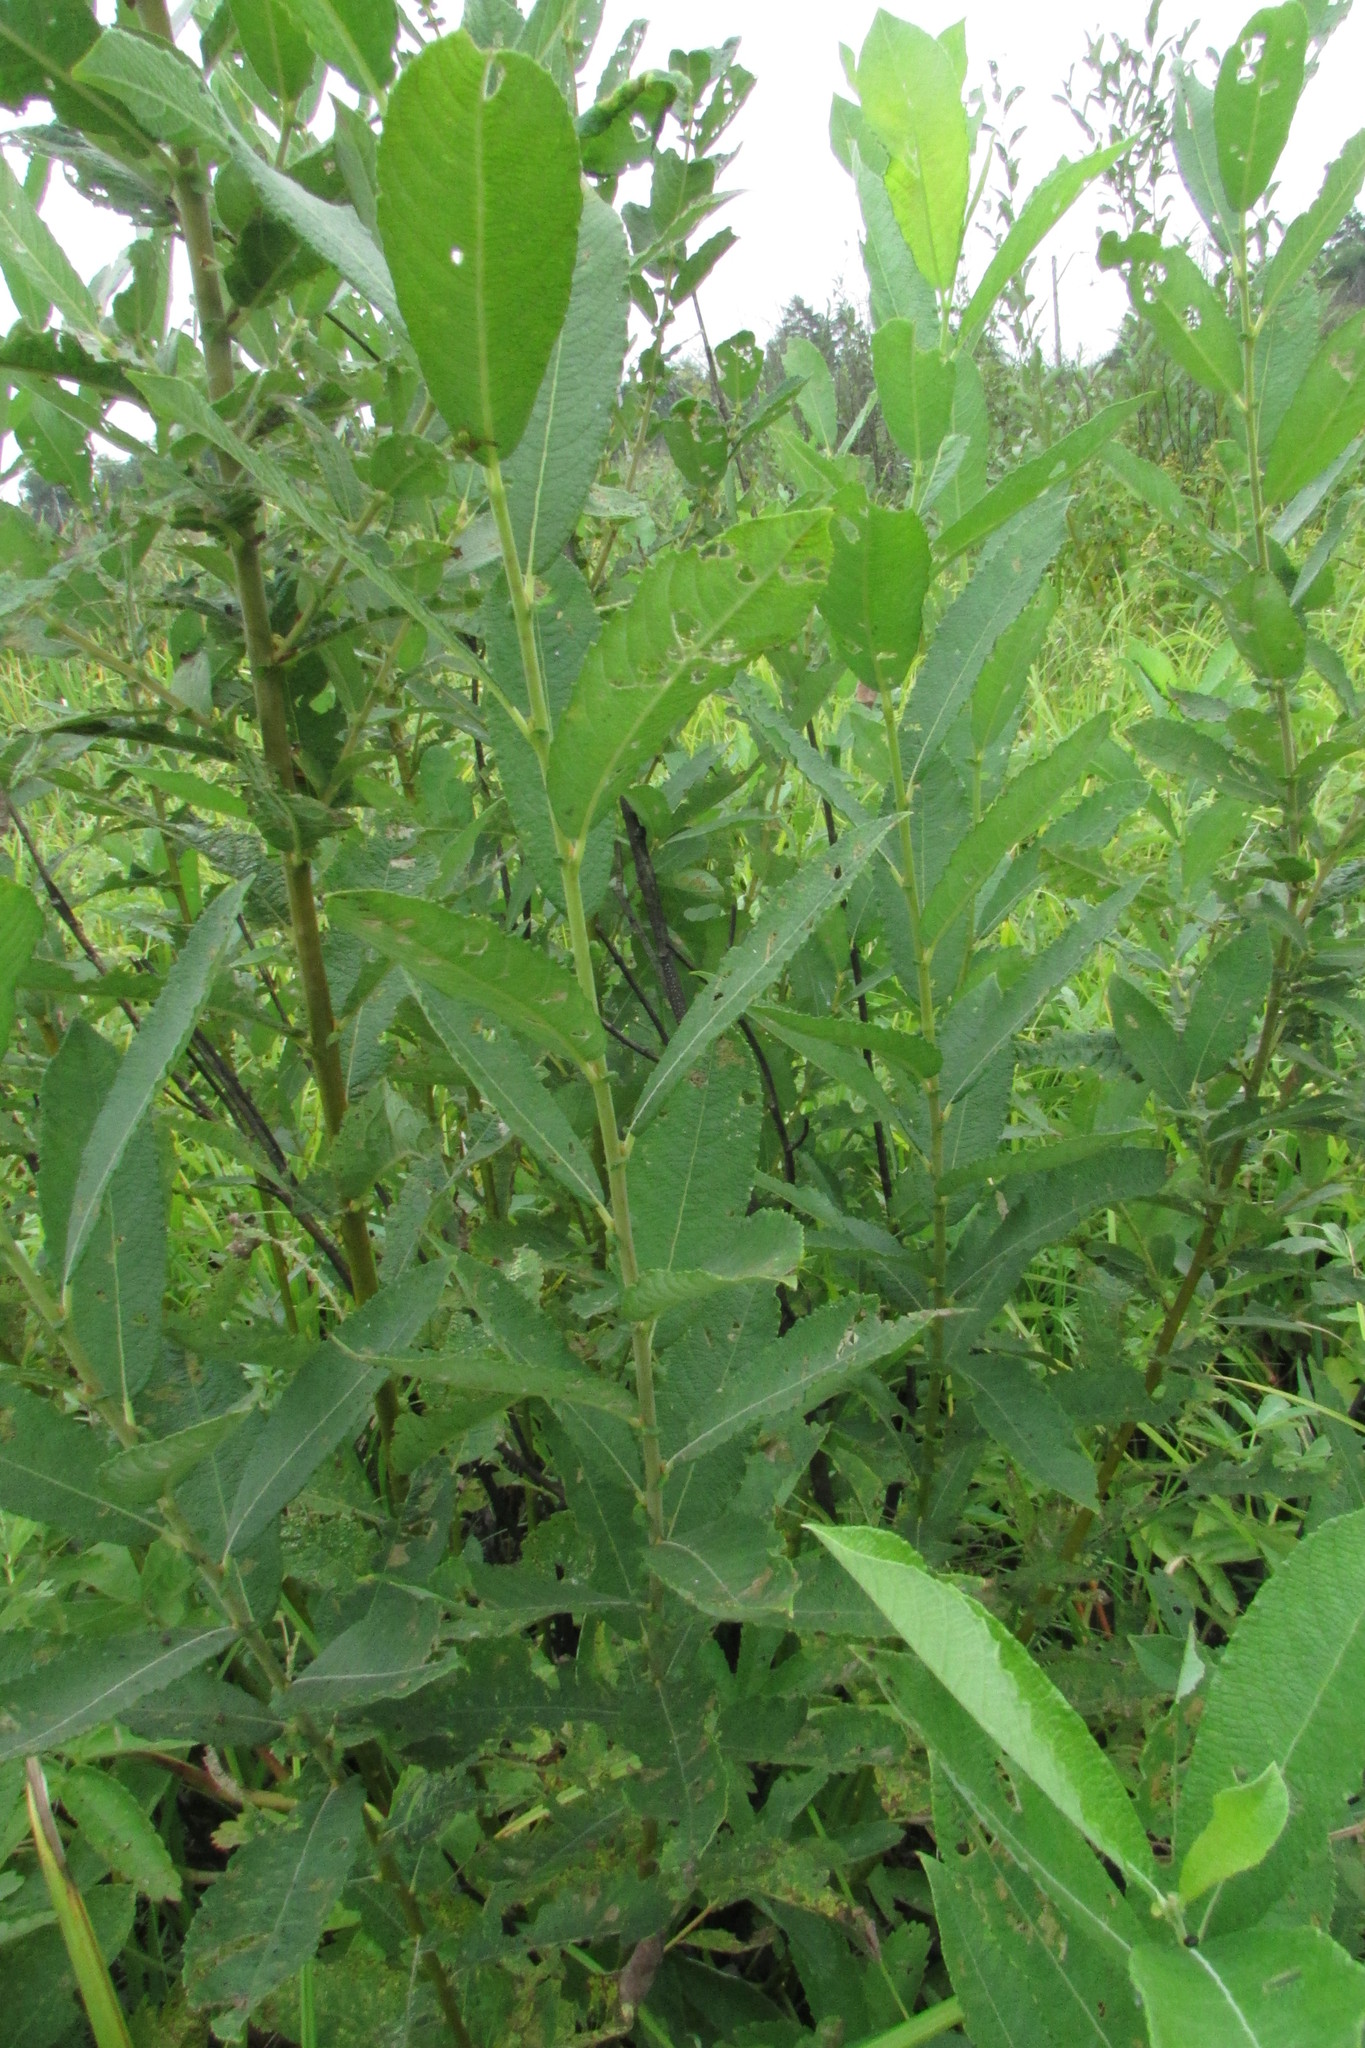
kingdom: Plantae
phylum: Tracheophyta
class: Magnoliopsida
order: Malpighiales
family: Salicaceae
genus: Salix
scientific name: Salix cinerea
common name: Common sallow
